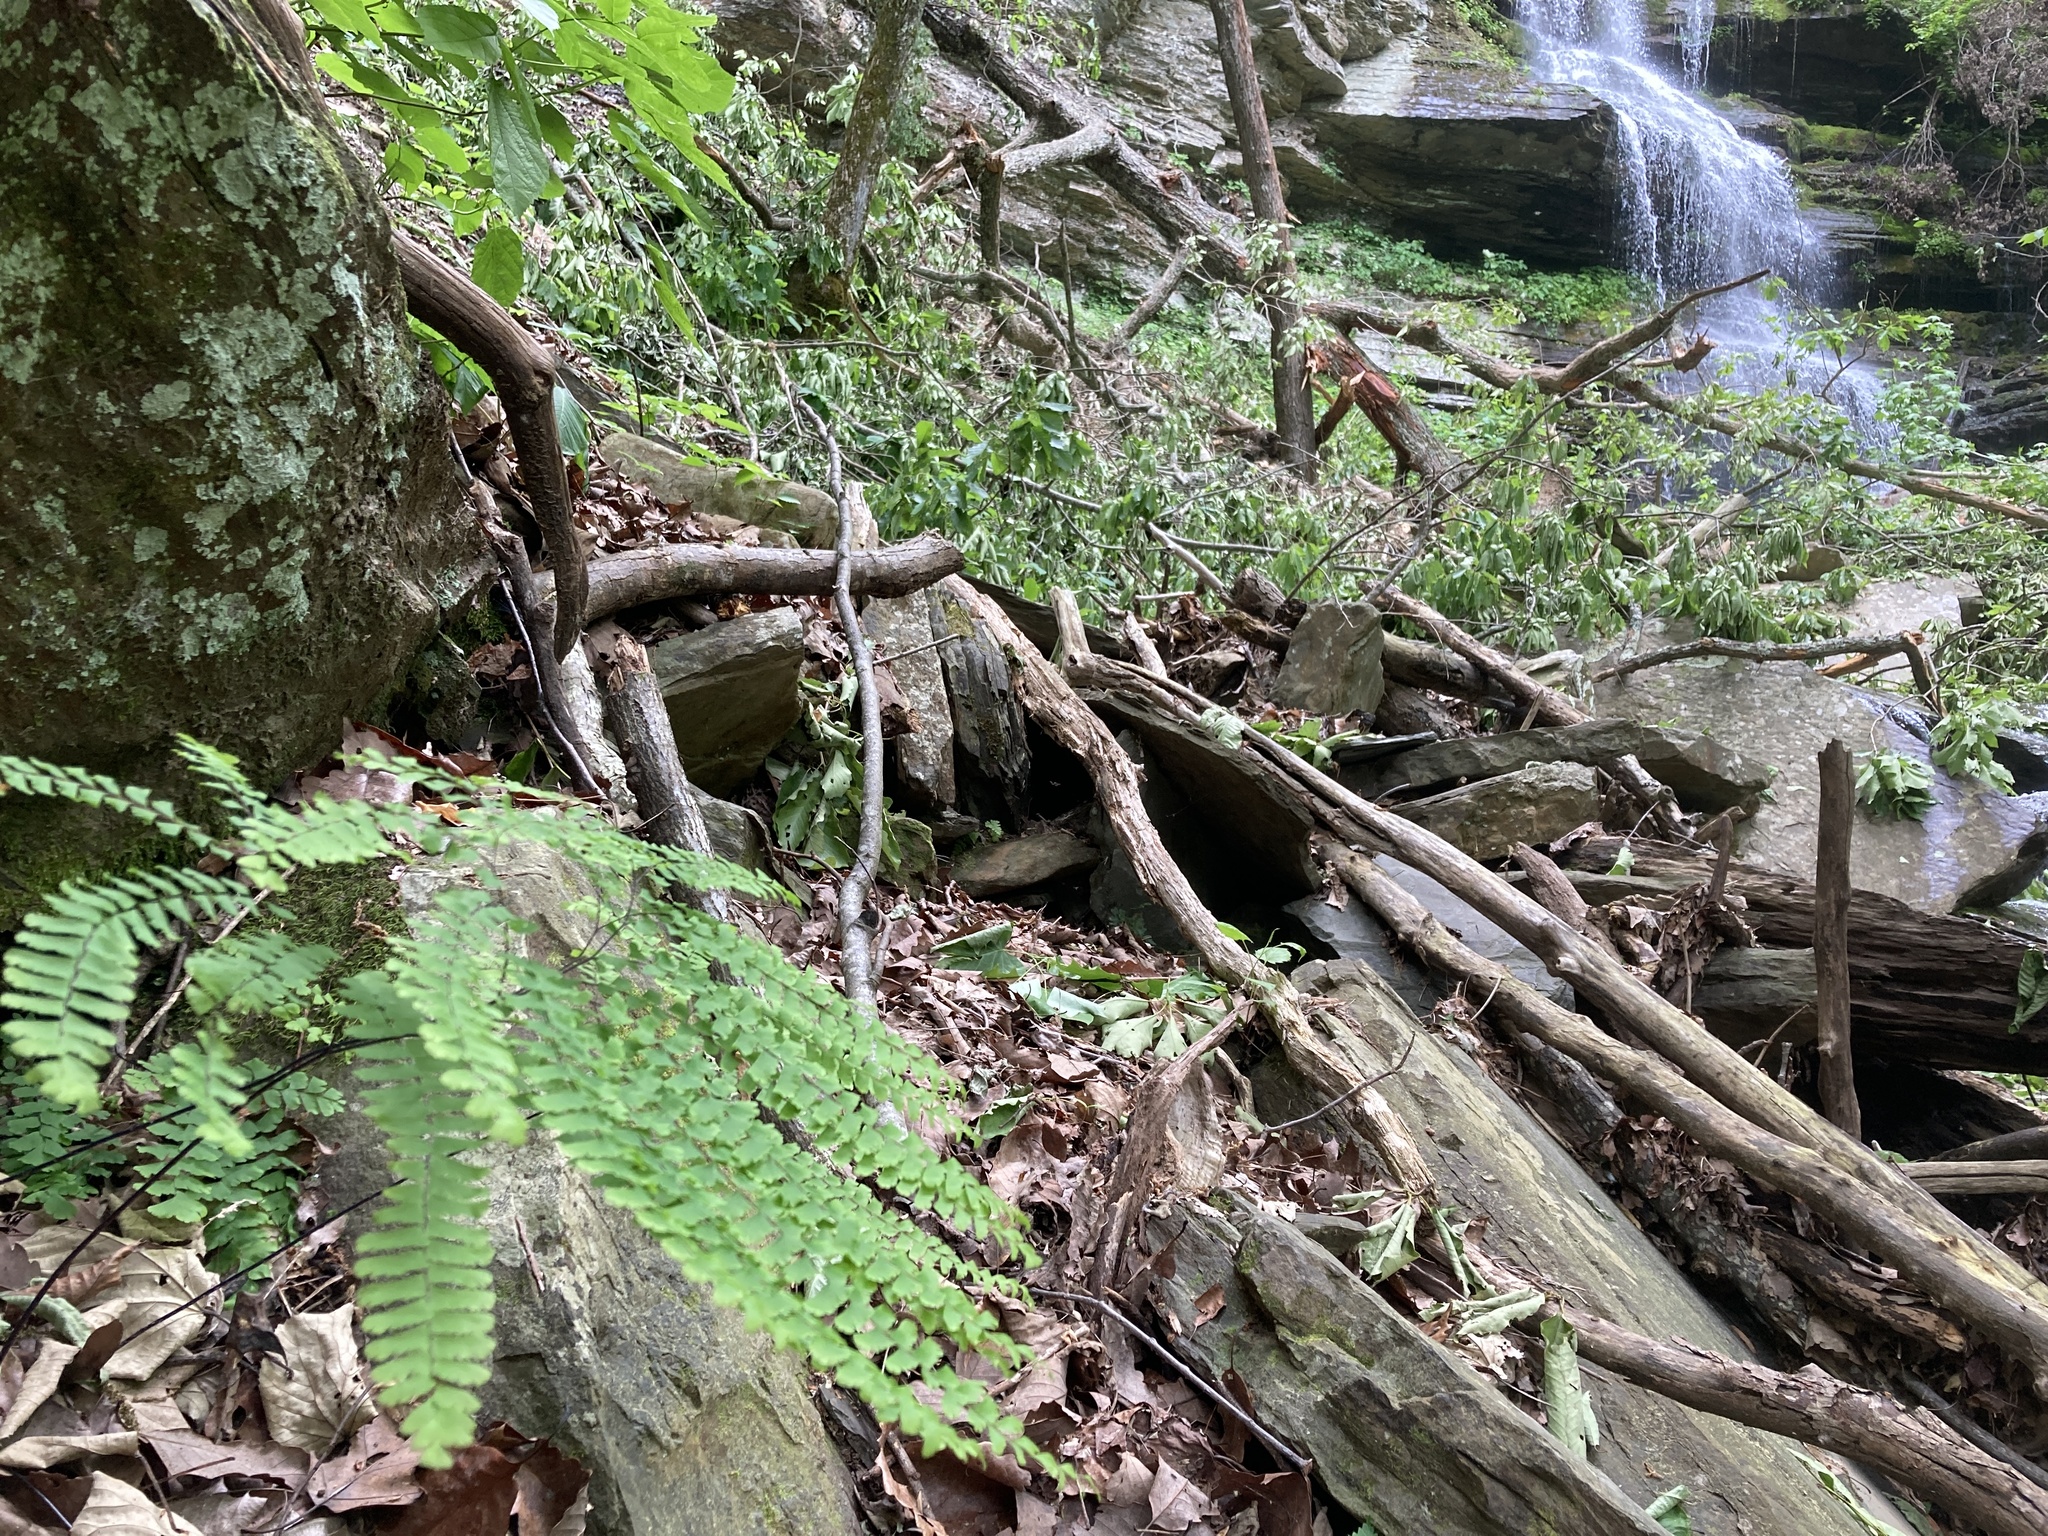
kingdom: Plantae
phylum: Tracheophyta
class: Polypodiopsida
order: Polypodiales
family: Pteridaceae
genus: Adiantum
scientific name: Adiantum pedatum
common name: Five-finger fern
